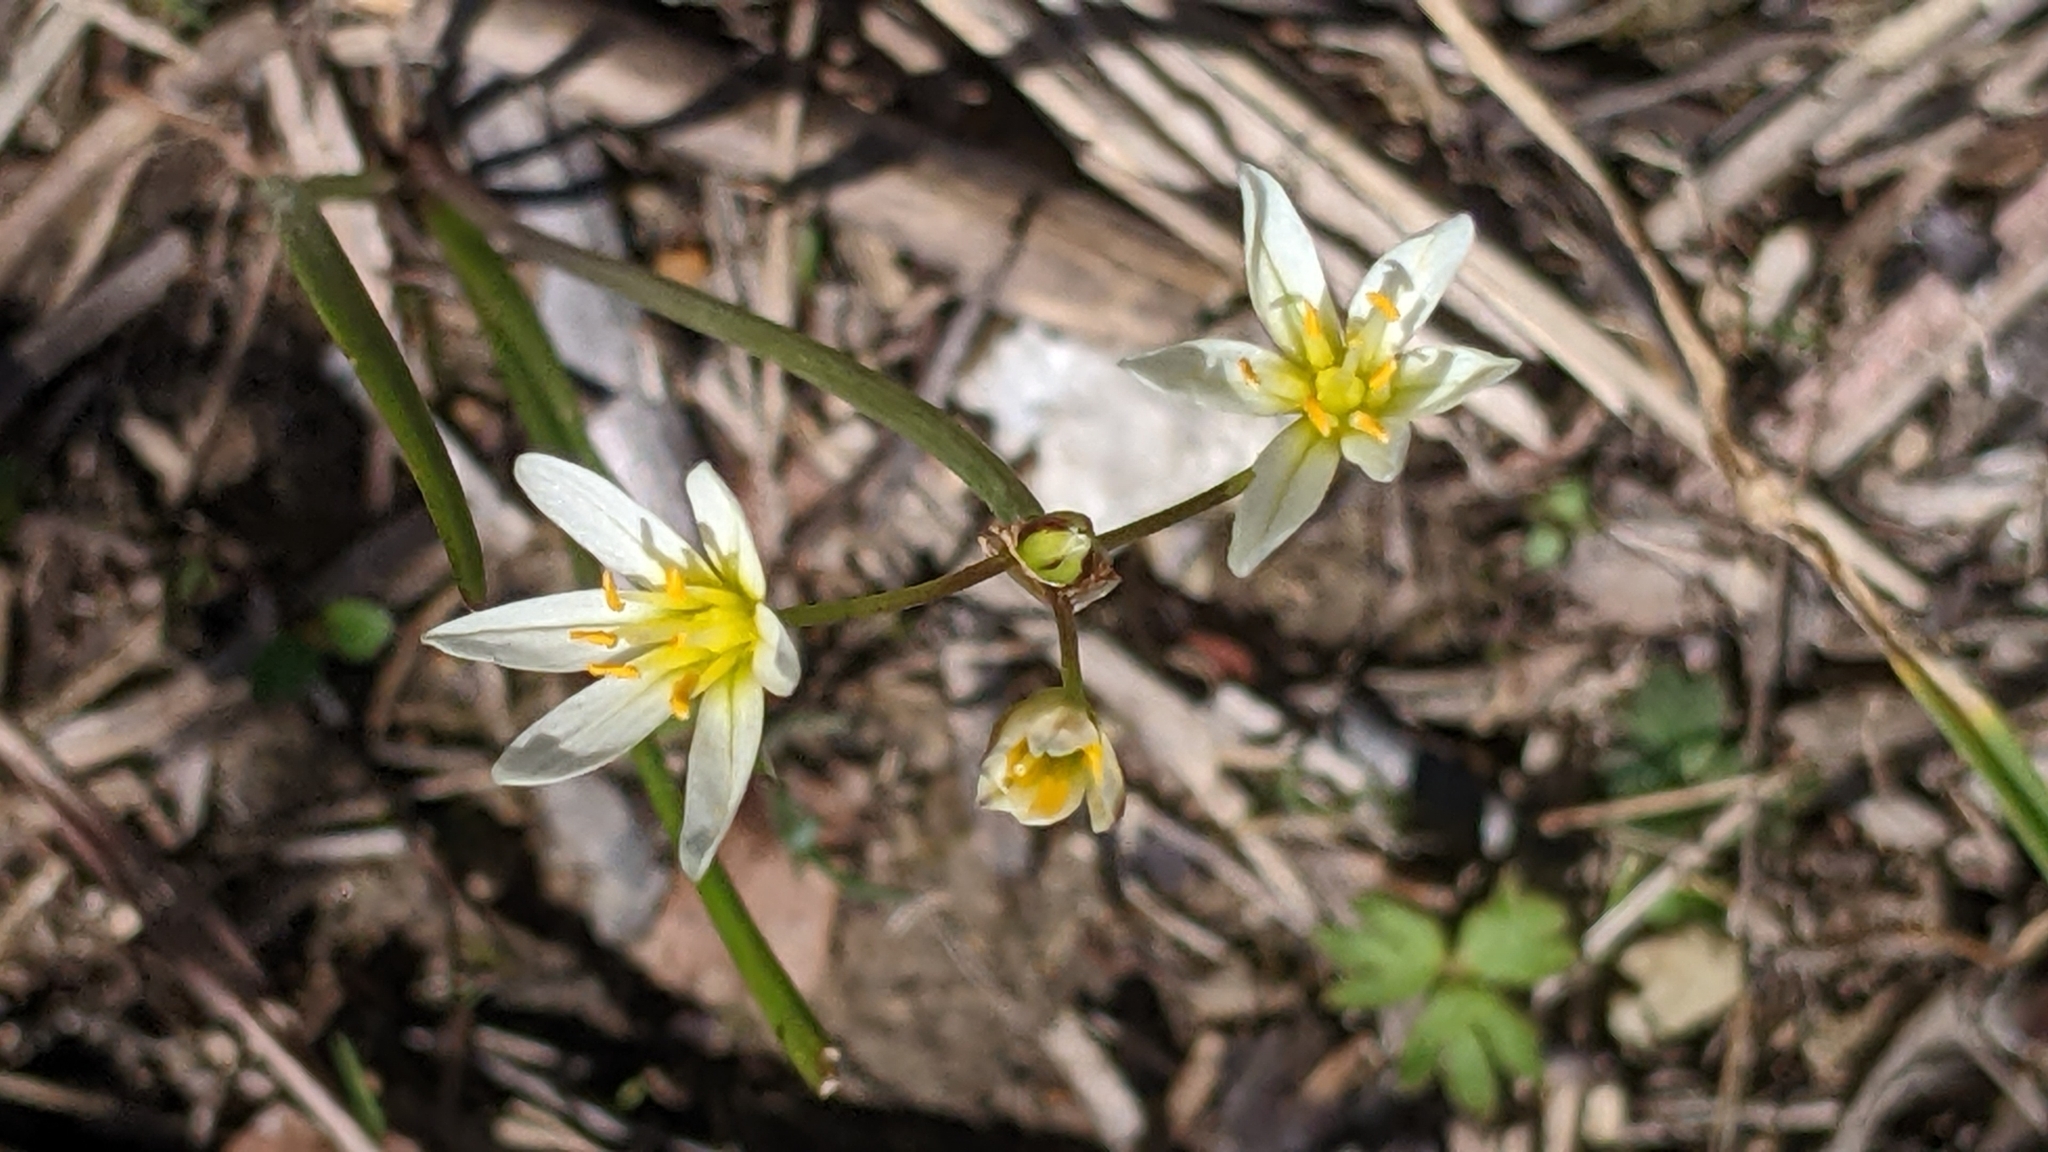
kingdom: Plantae
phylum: Tracheophyta
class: Liliopsida
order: Asparagales
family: Amaryllidaceae
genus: Nothoscordum
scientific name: Nothoscordum bivalve
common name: Crow-poison
